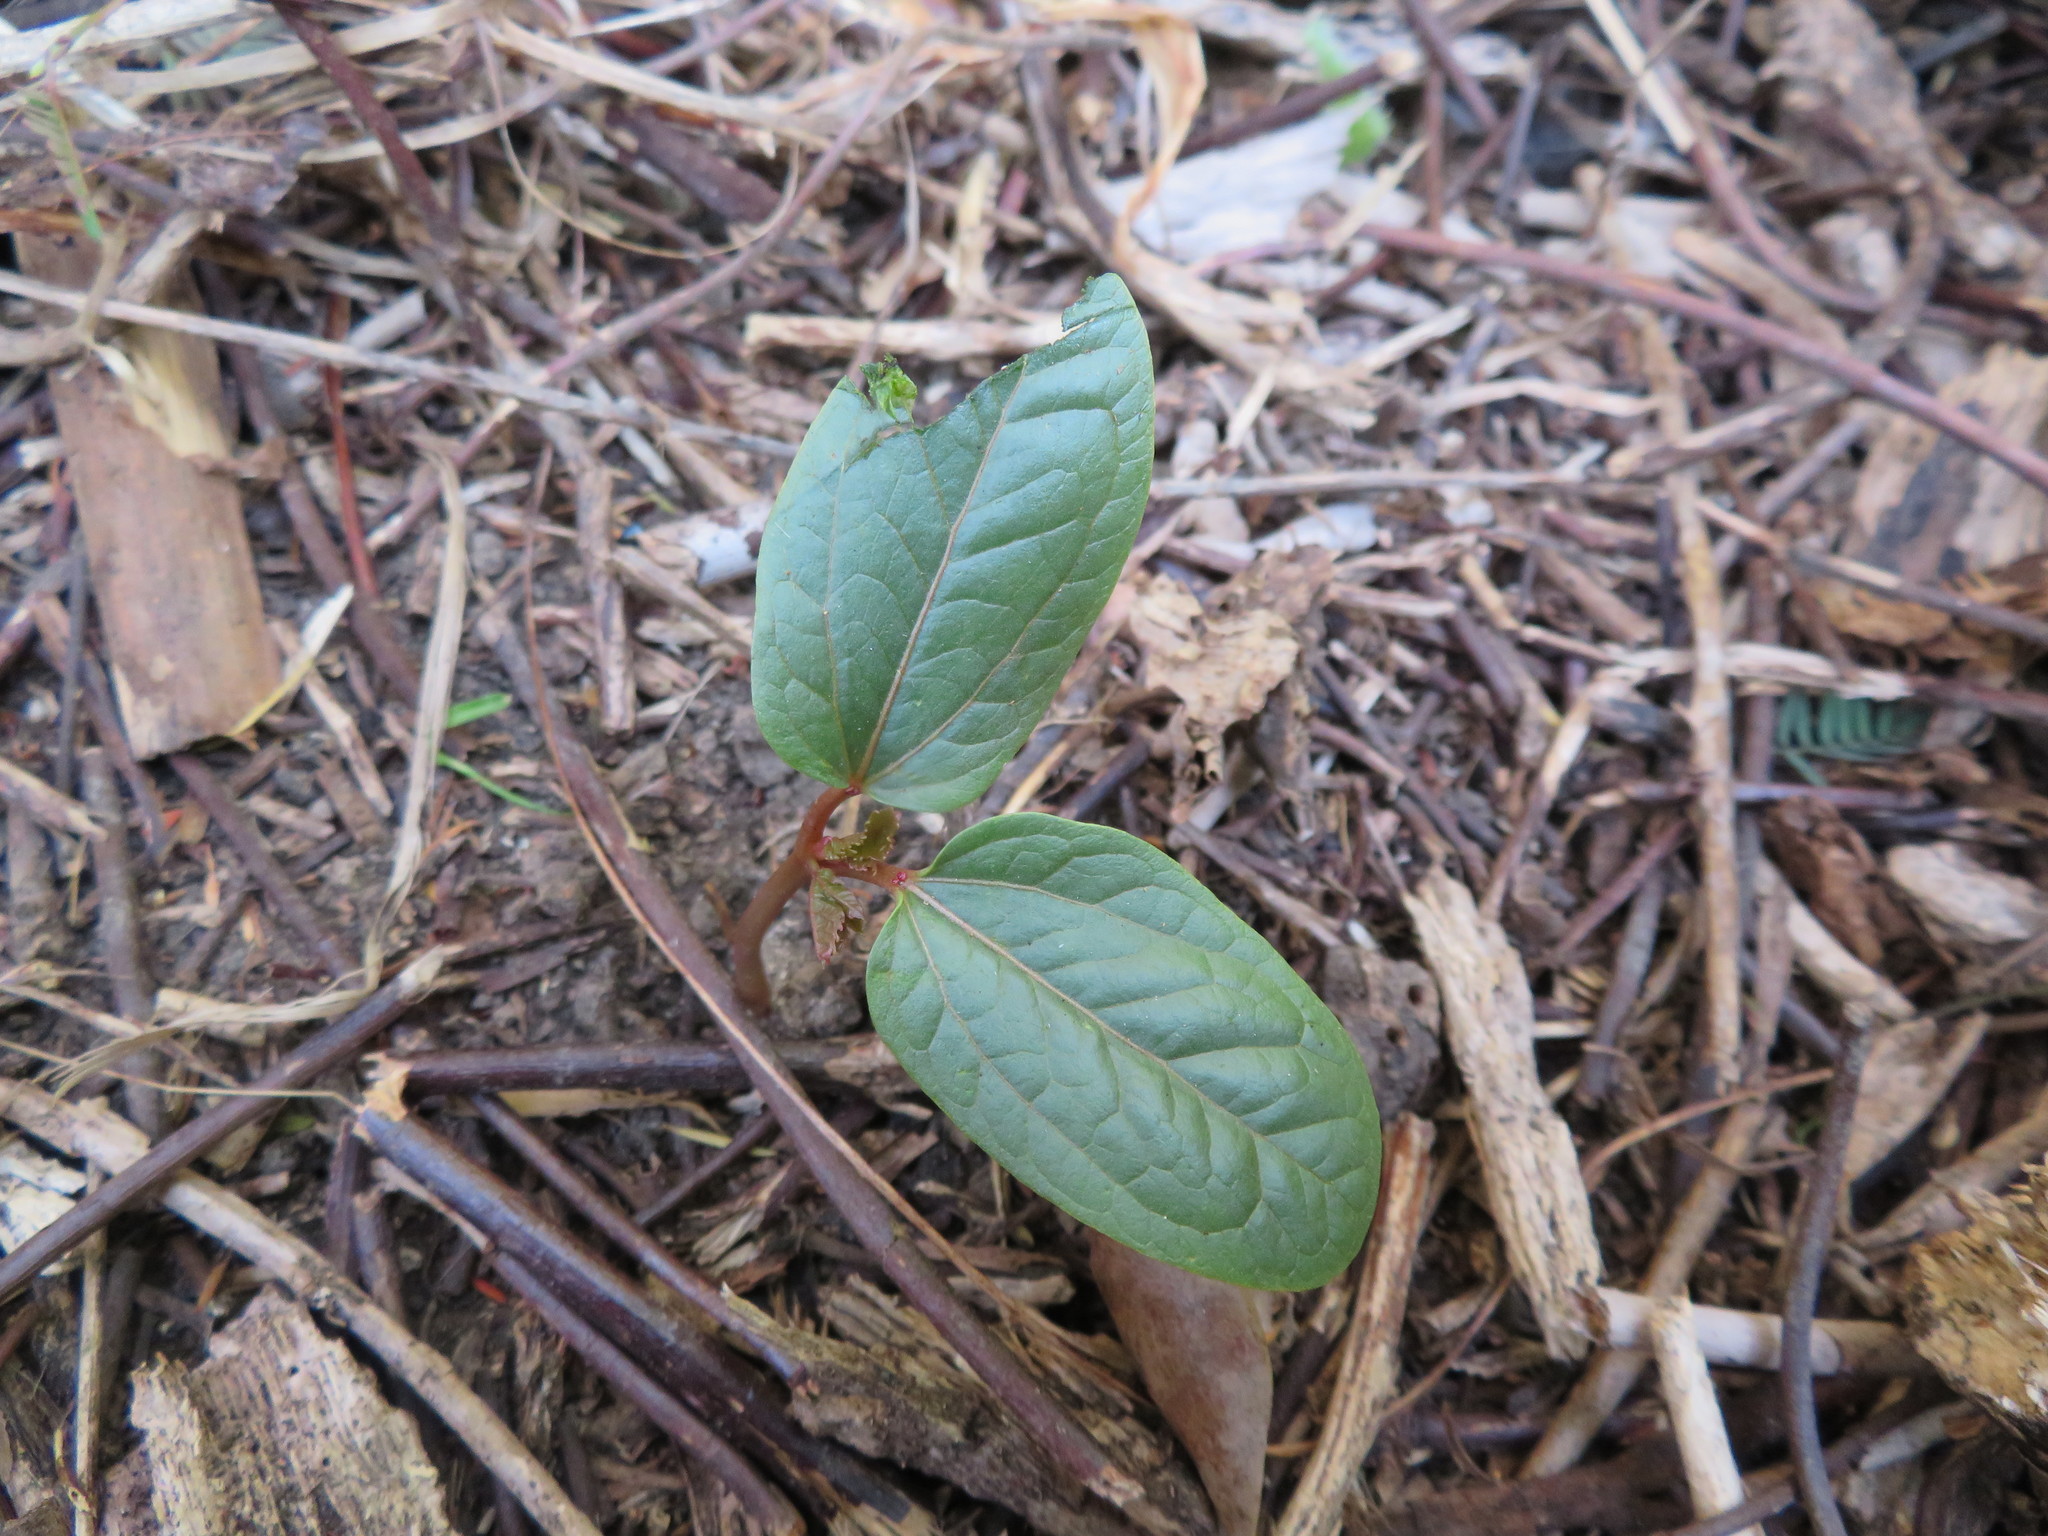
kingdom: Plantae
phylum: Tracheophyta
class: Magnoliopsida
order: Malpighiales
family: Euphorbiaceae
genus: Ricinus
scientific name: Ricinus communis
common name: Castor-oil-plant
